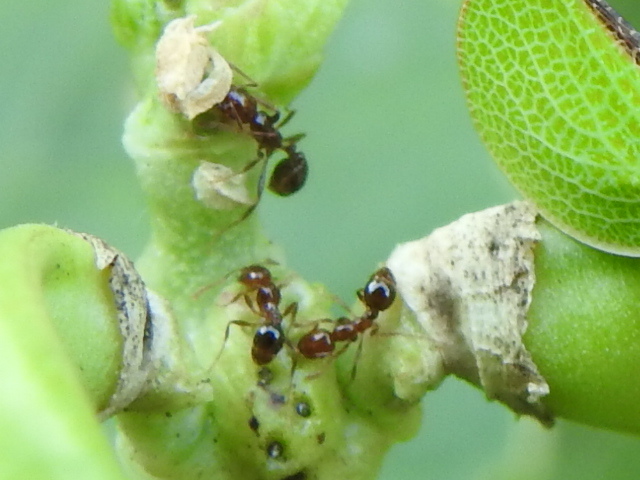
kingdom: Animalia
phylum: Arthropoda
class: Insecta
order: Hymenoptera
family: Formicidae
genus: Solenopsis
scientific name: Solenopsis invicta
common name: Red imported fire ant
